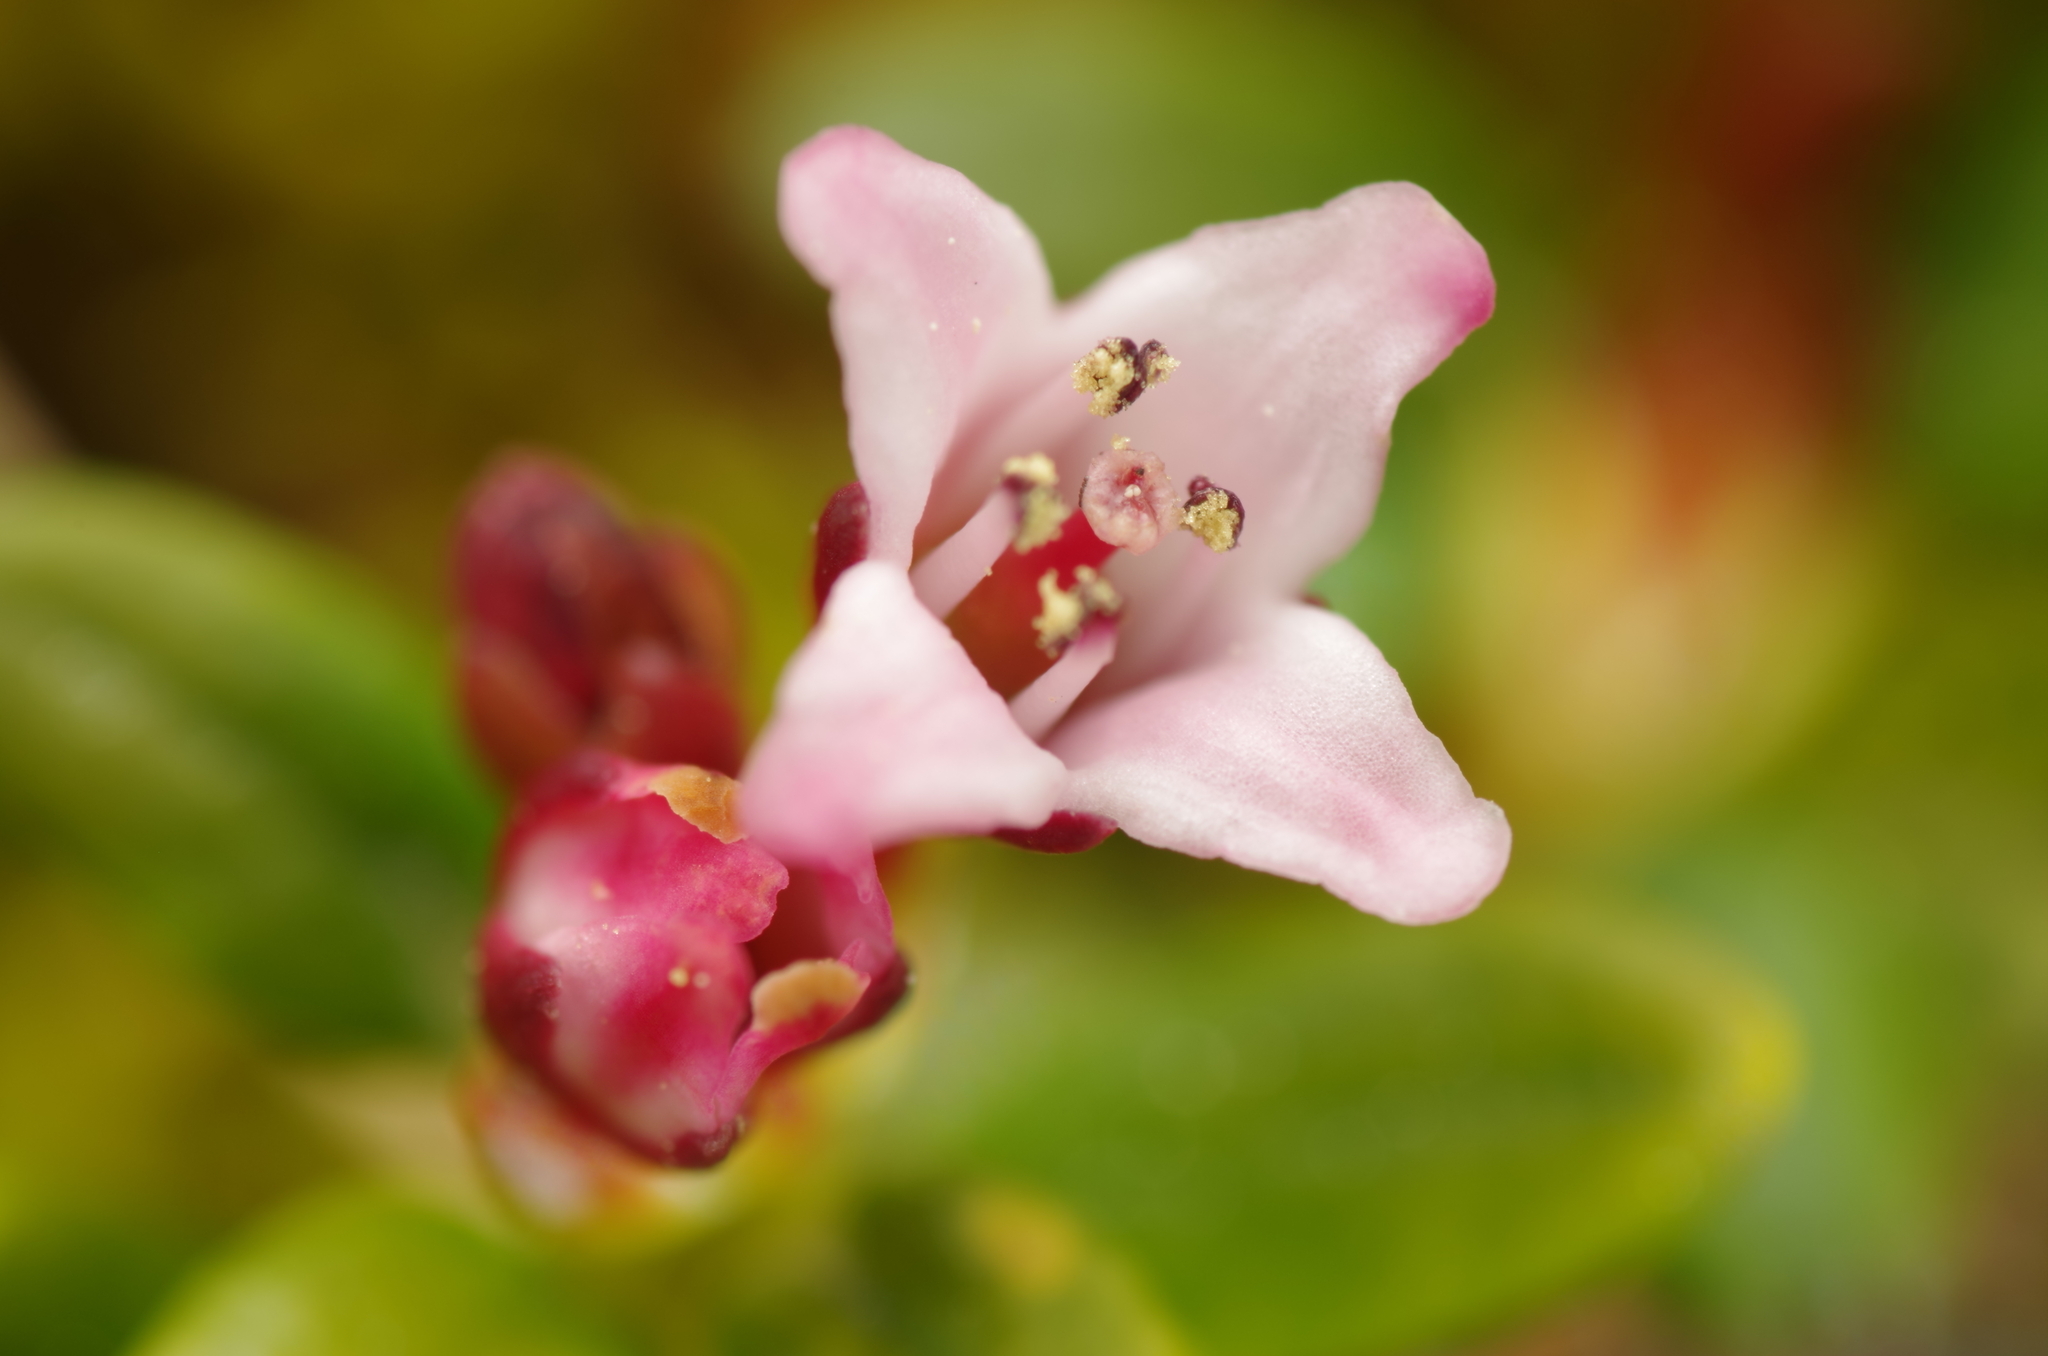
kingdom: Plantae
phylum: Tracheophyta
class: Magnoliopsida
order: Ericales
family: Ericaceae
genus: Kalmia
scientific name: Kalmia procumbens
